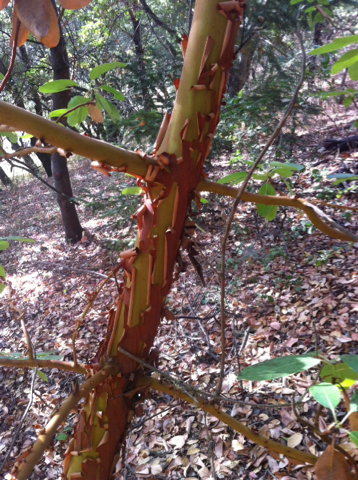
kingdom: Plantae
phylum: Tracheophyta
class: Magnoliopsida
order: Ericales
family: Ericaceae
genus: Arbutus
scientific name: Arbutus menziesii
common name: Pacific madrone
